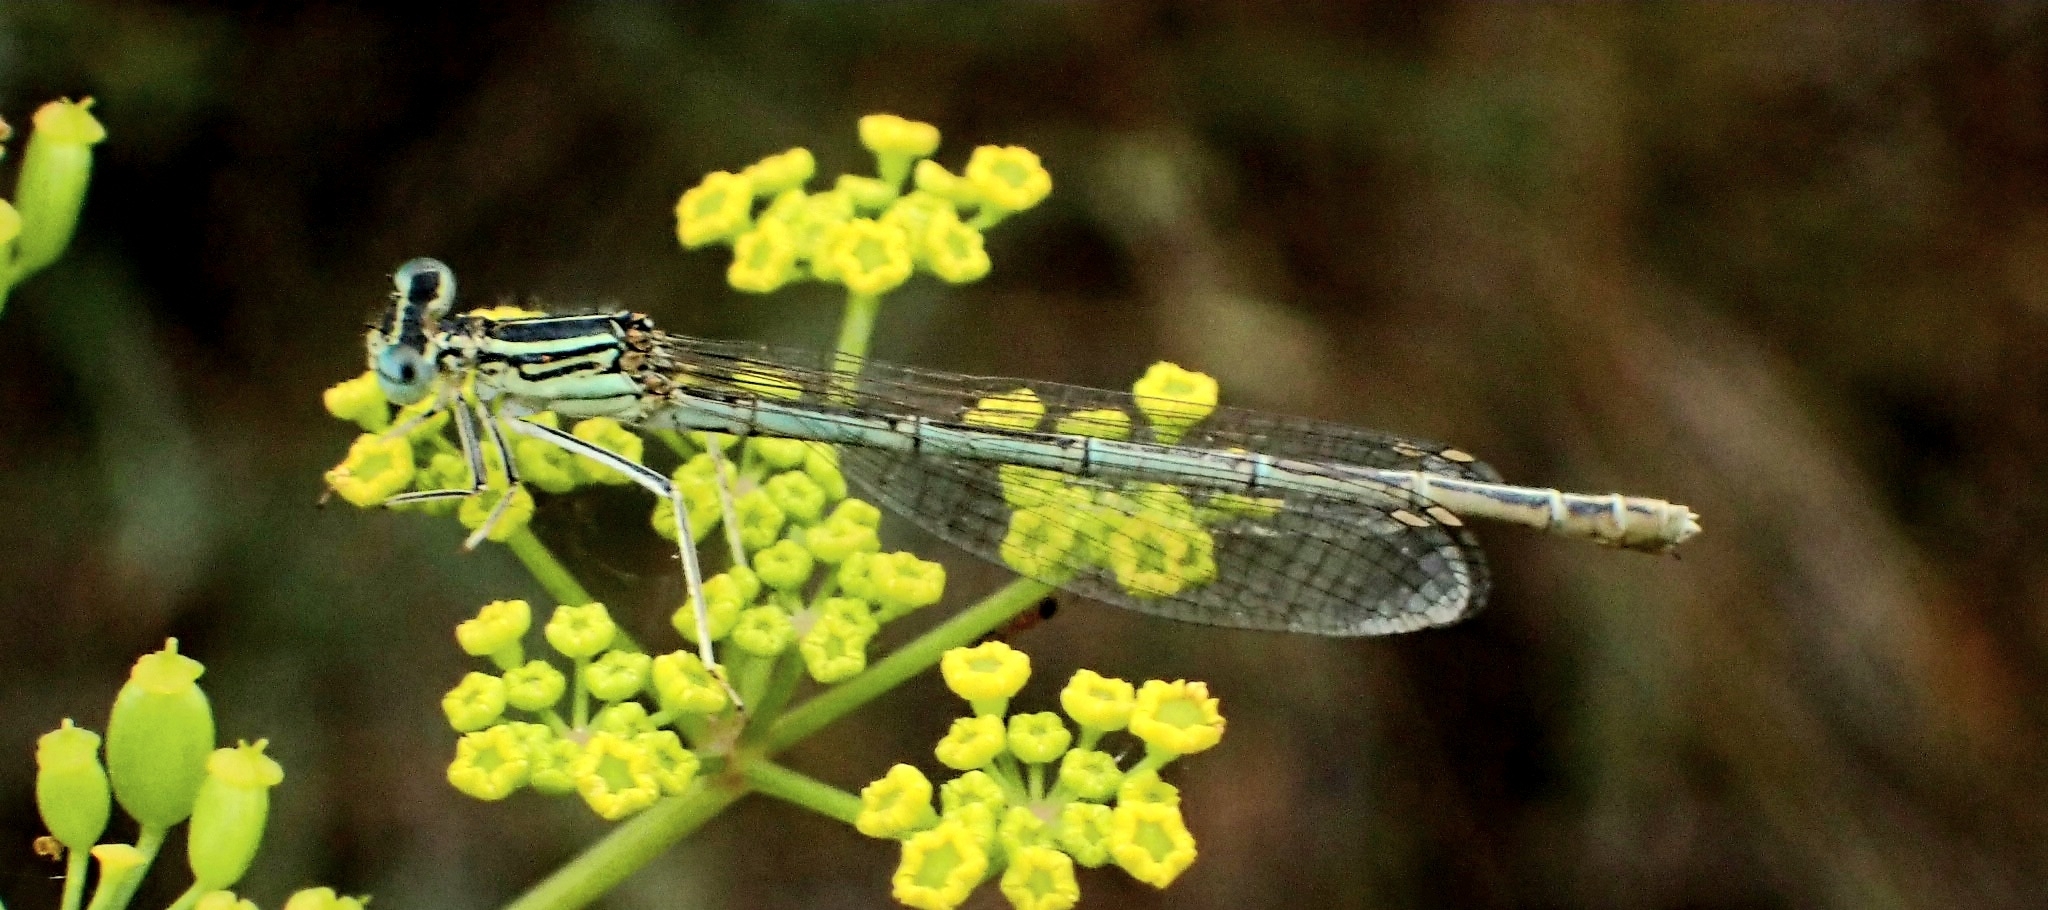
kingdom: Animalia
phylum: Arthropoda
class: Insecta
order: Odonata
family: Platycnemididae
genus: Platycnemis
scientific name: Platycnemis pennipes
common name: White-legged damselfly
